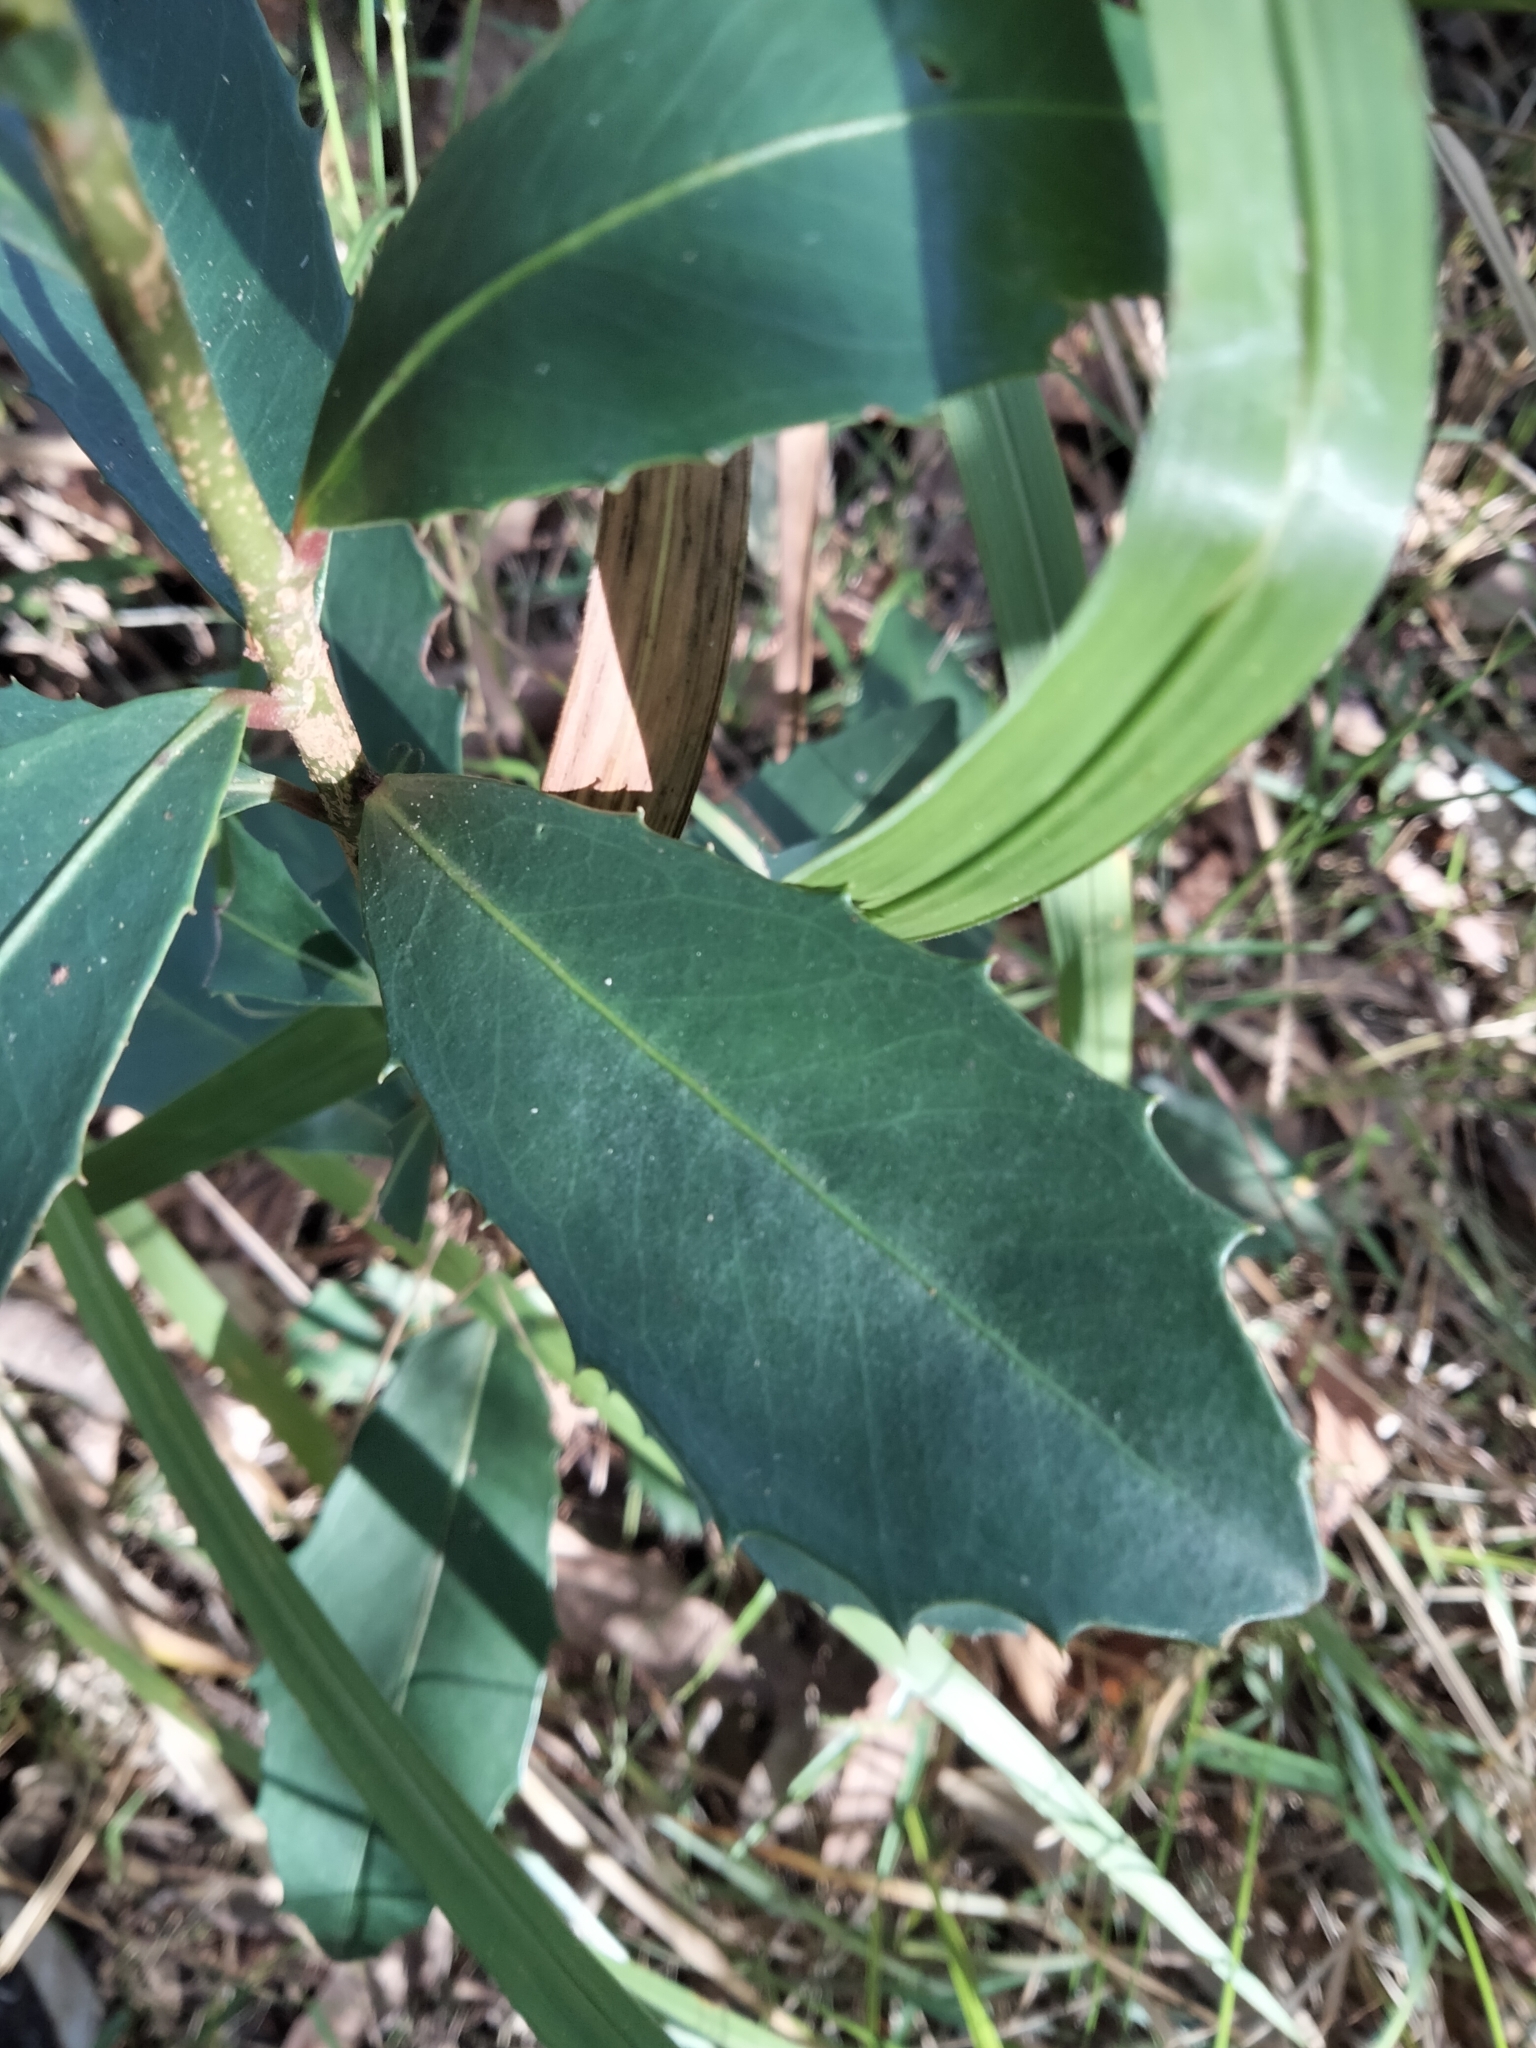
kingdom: Plantae
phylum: Tracheophyta
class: Magnoliopsida
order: Ericales
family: Primulaceae
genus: Myrsine
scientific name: Myrsine variabilis
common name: Brush muttonwood
